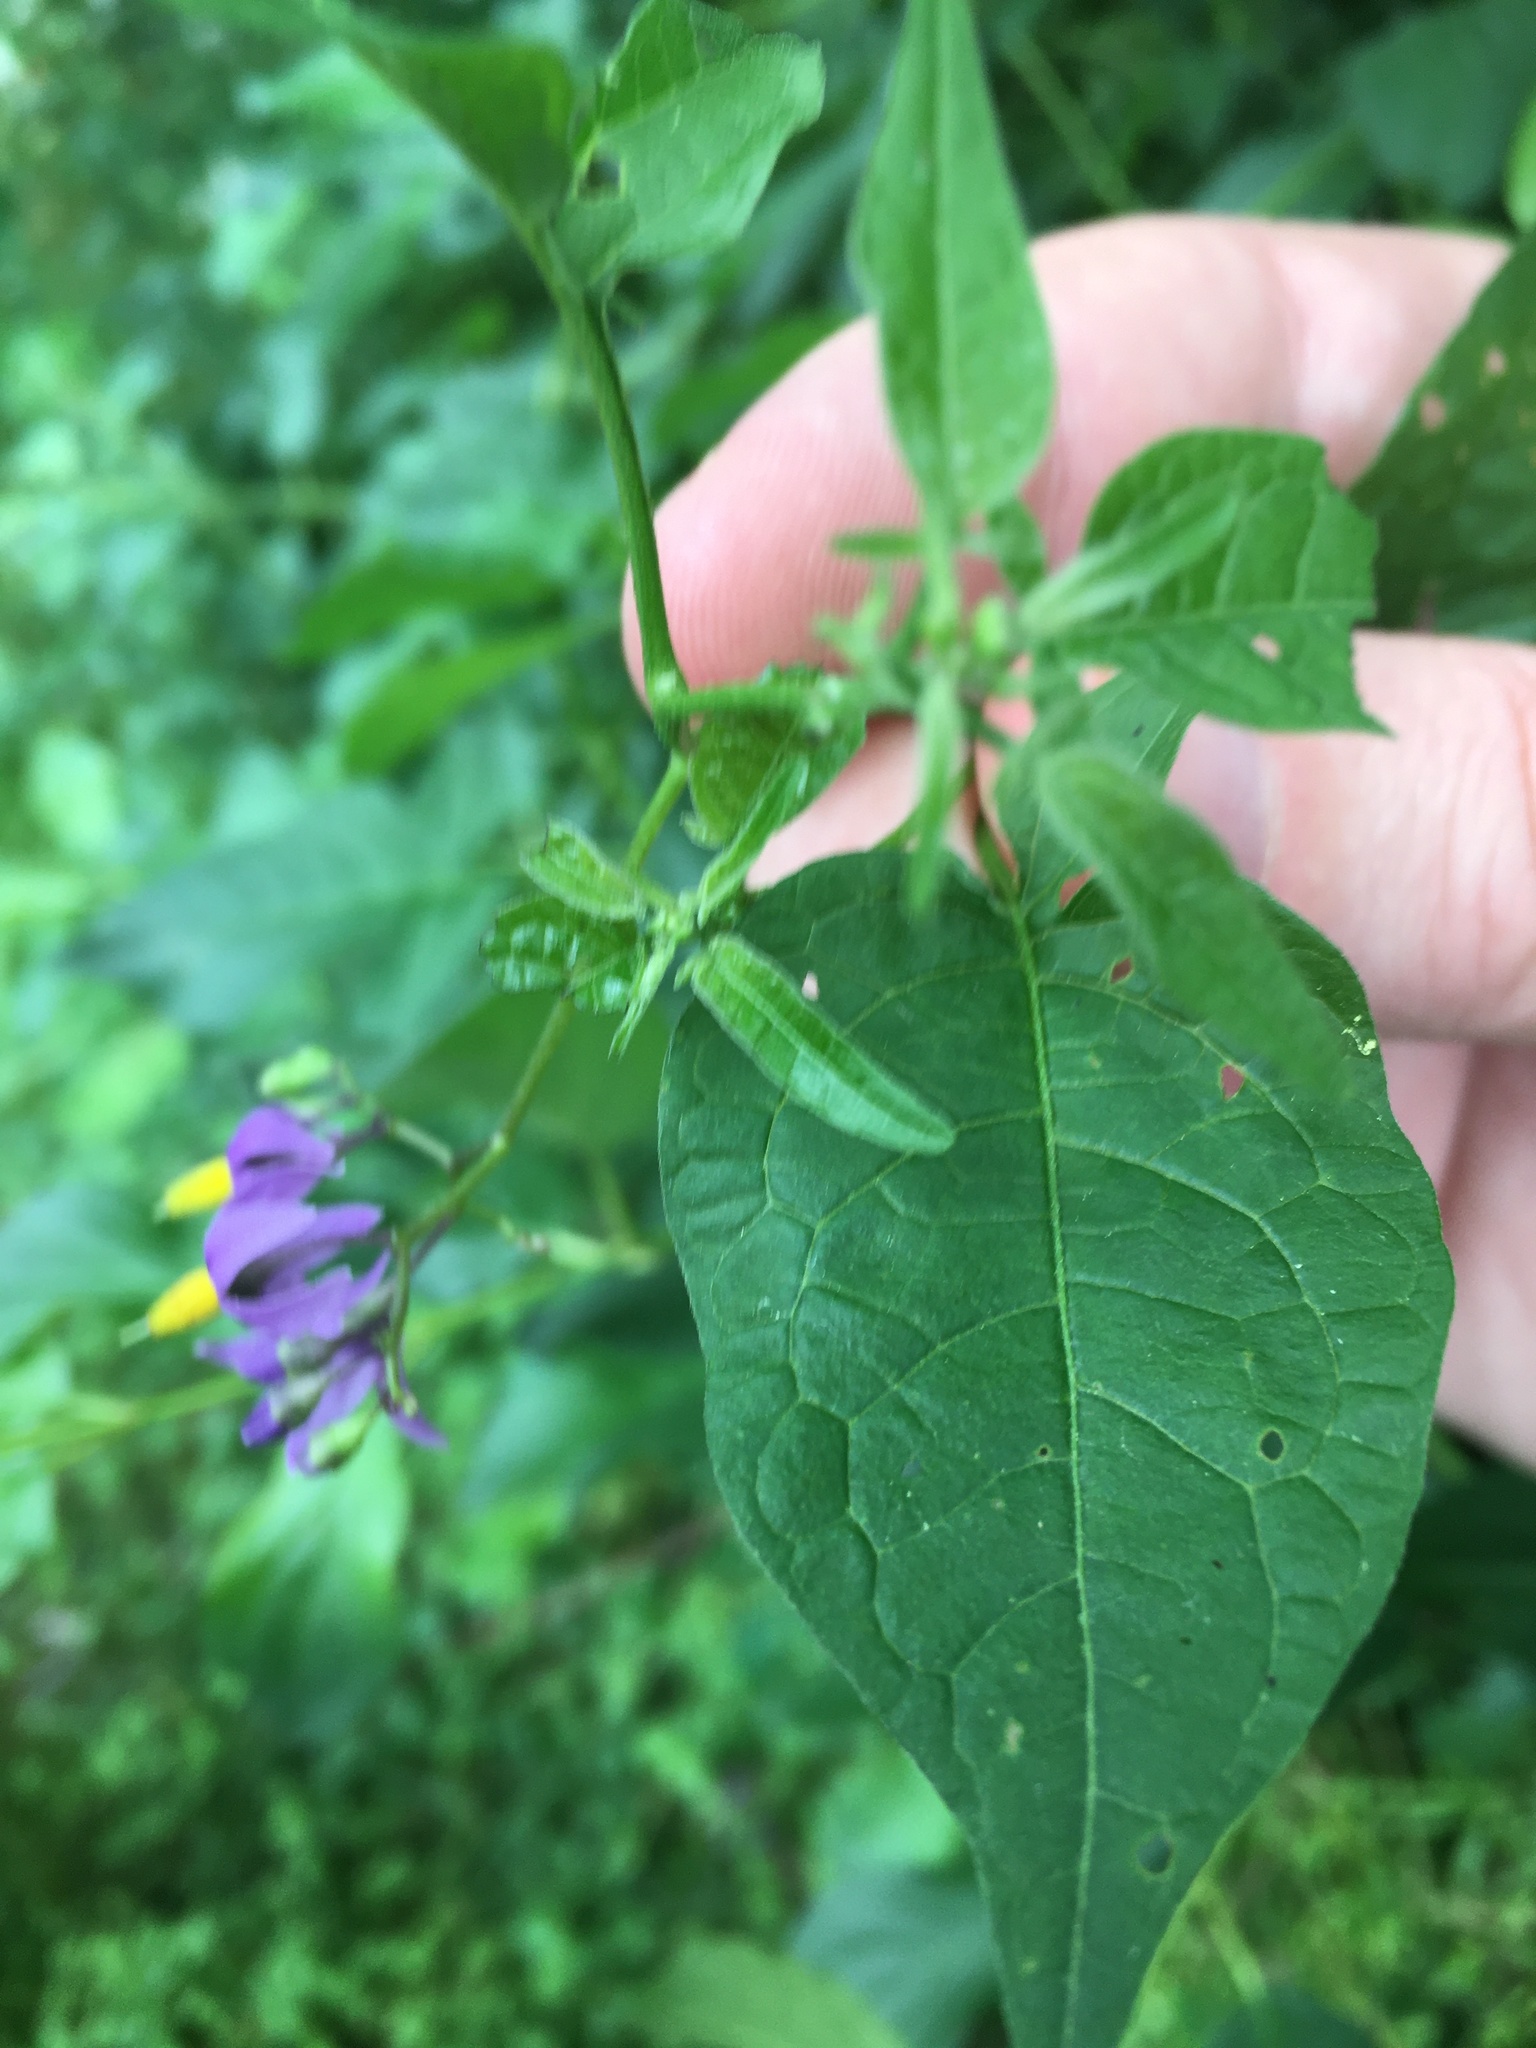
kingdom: Plantae
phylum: Tracheophyta
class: Magnoliopsida
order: Solanales
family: Solanaceae
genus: Solanum
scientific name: Solanum dulcamara
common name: Climbing nightshade
